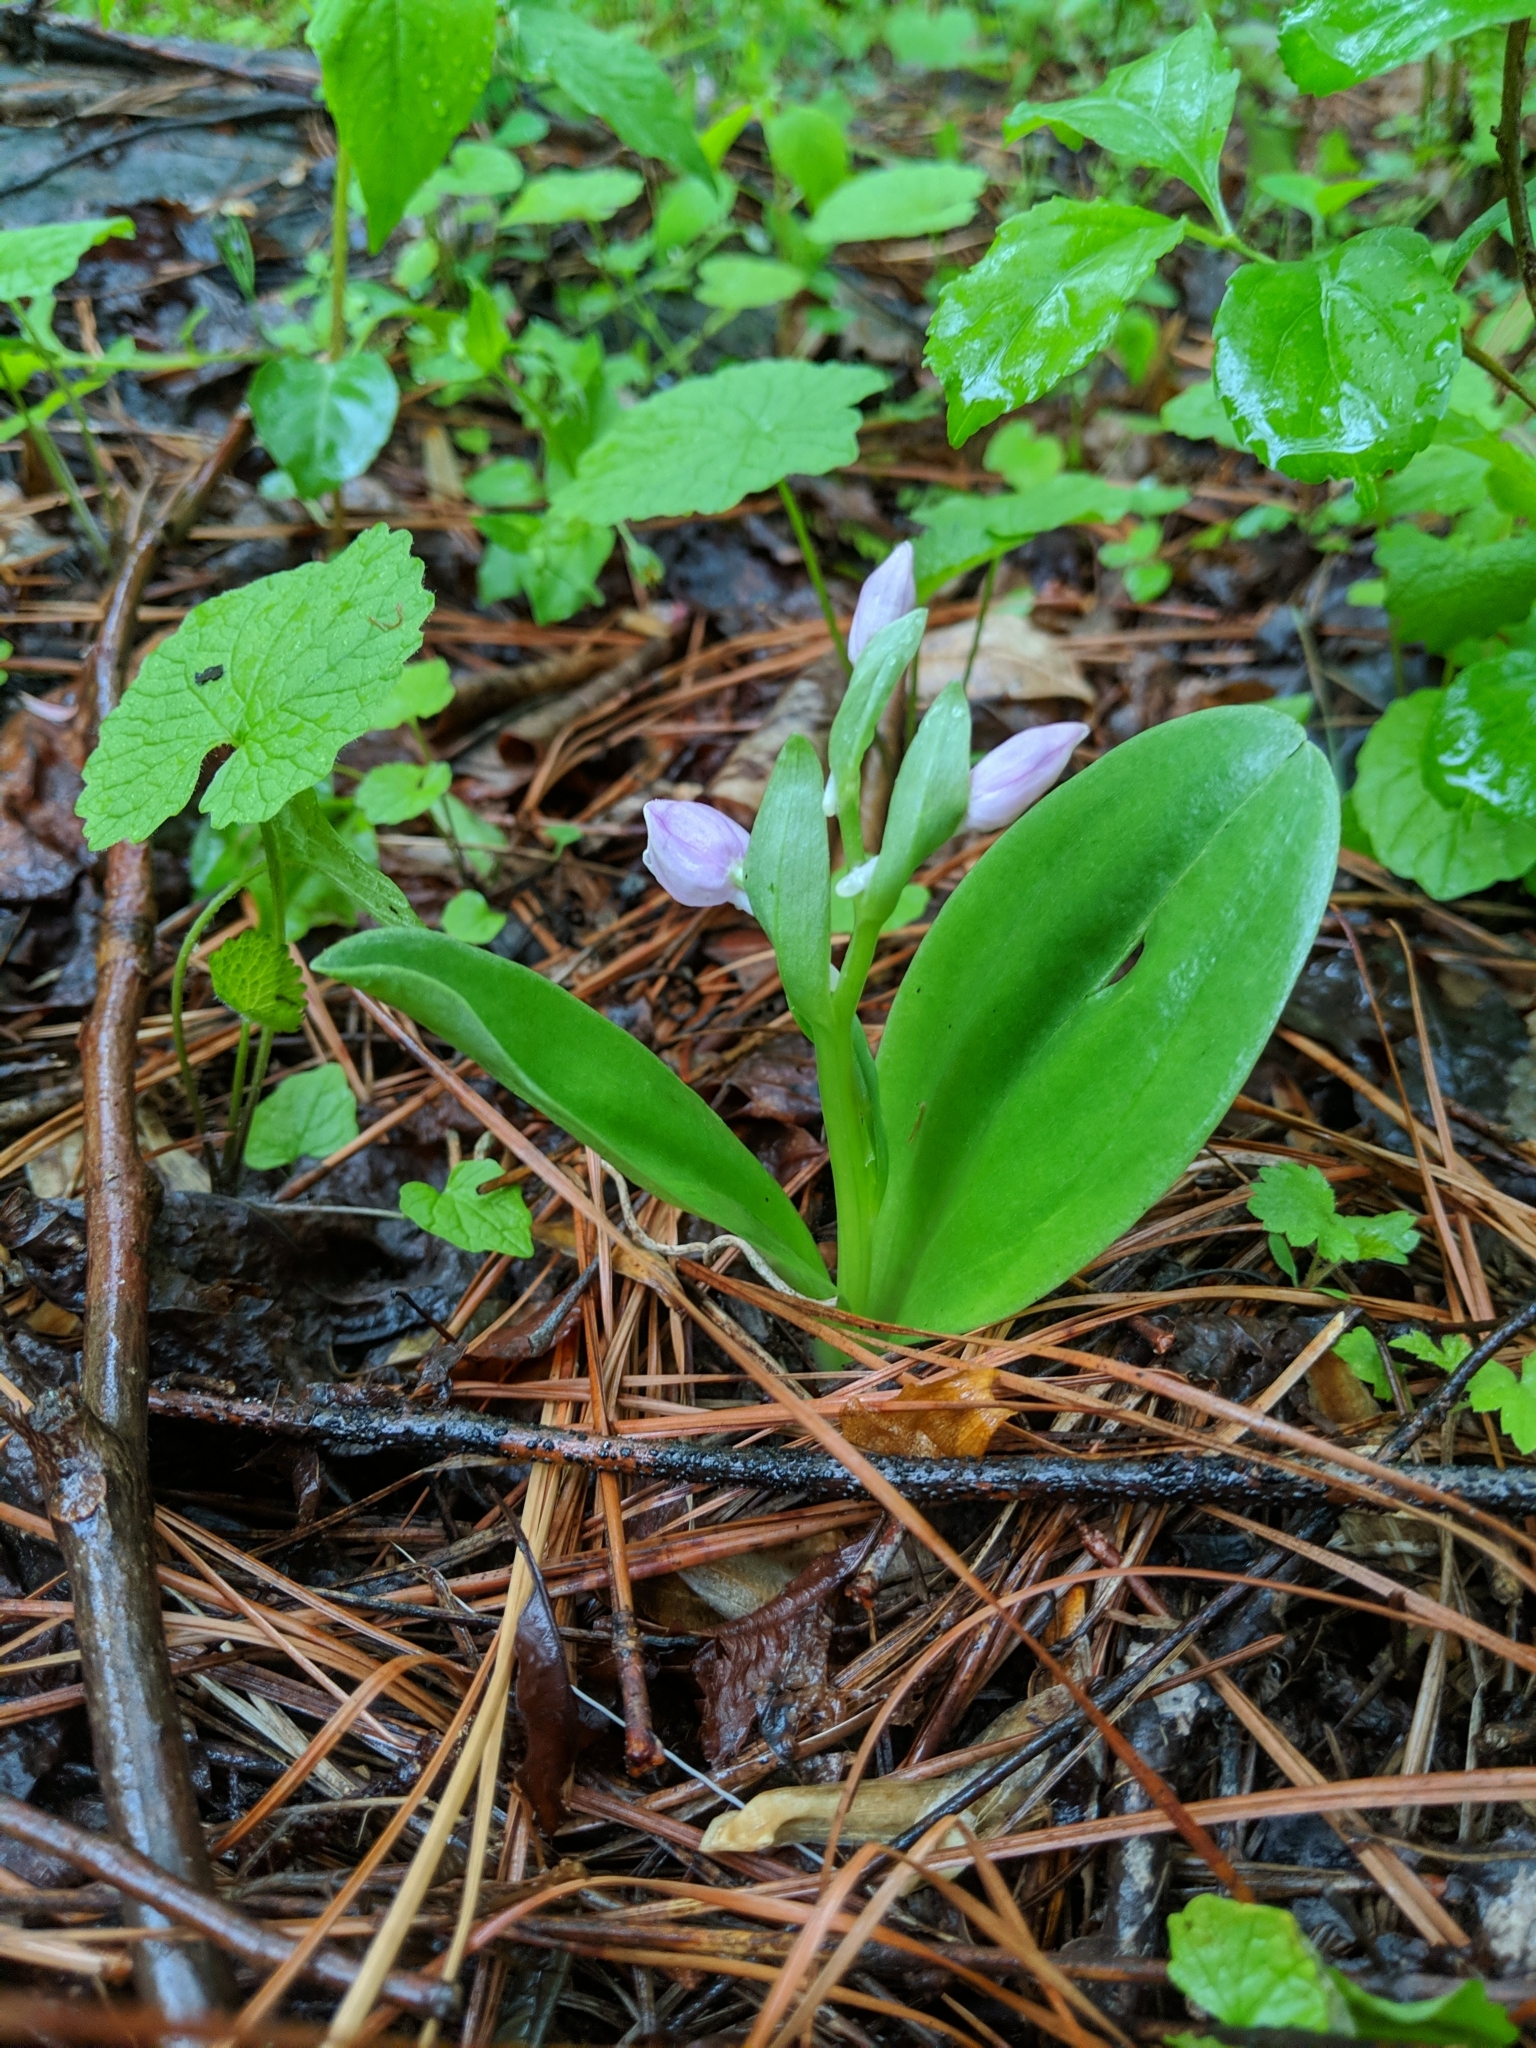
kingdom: Plantae
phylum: Tracheophyta
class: Liliopsida
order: Asparagales
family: Orchidaceae
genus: Galearis
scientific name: Galearis spectabilis
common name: Purple-hooded orchis
